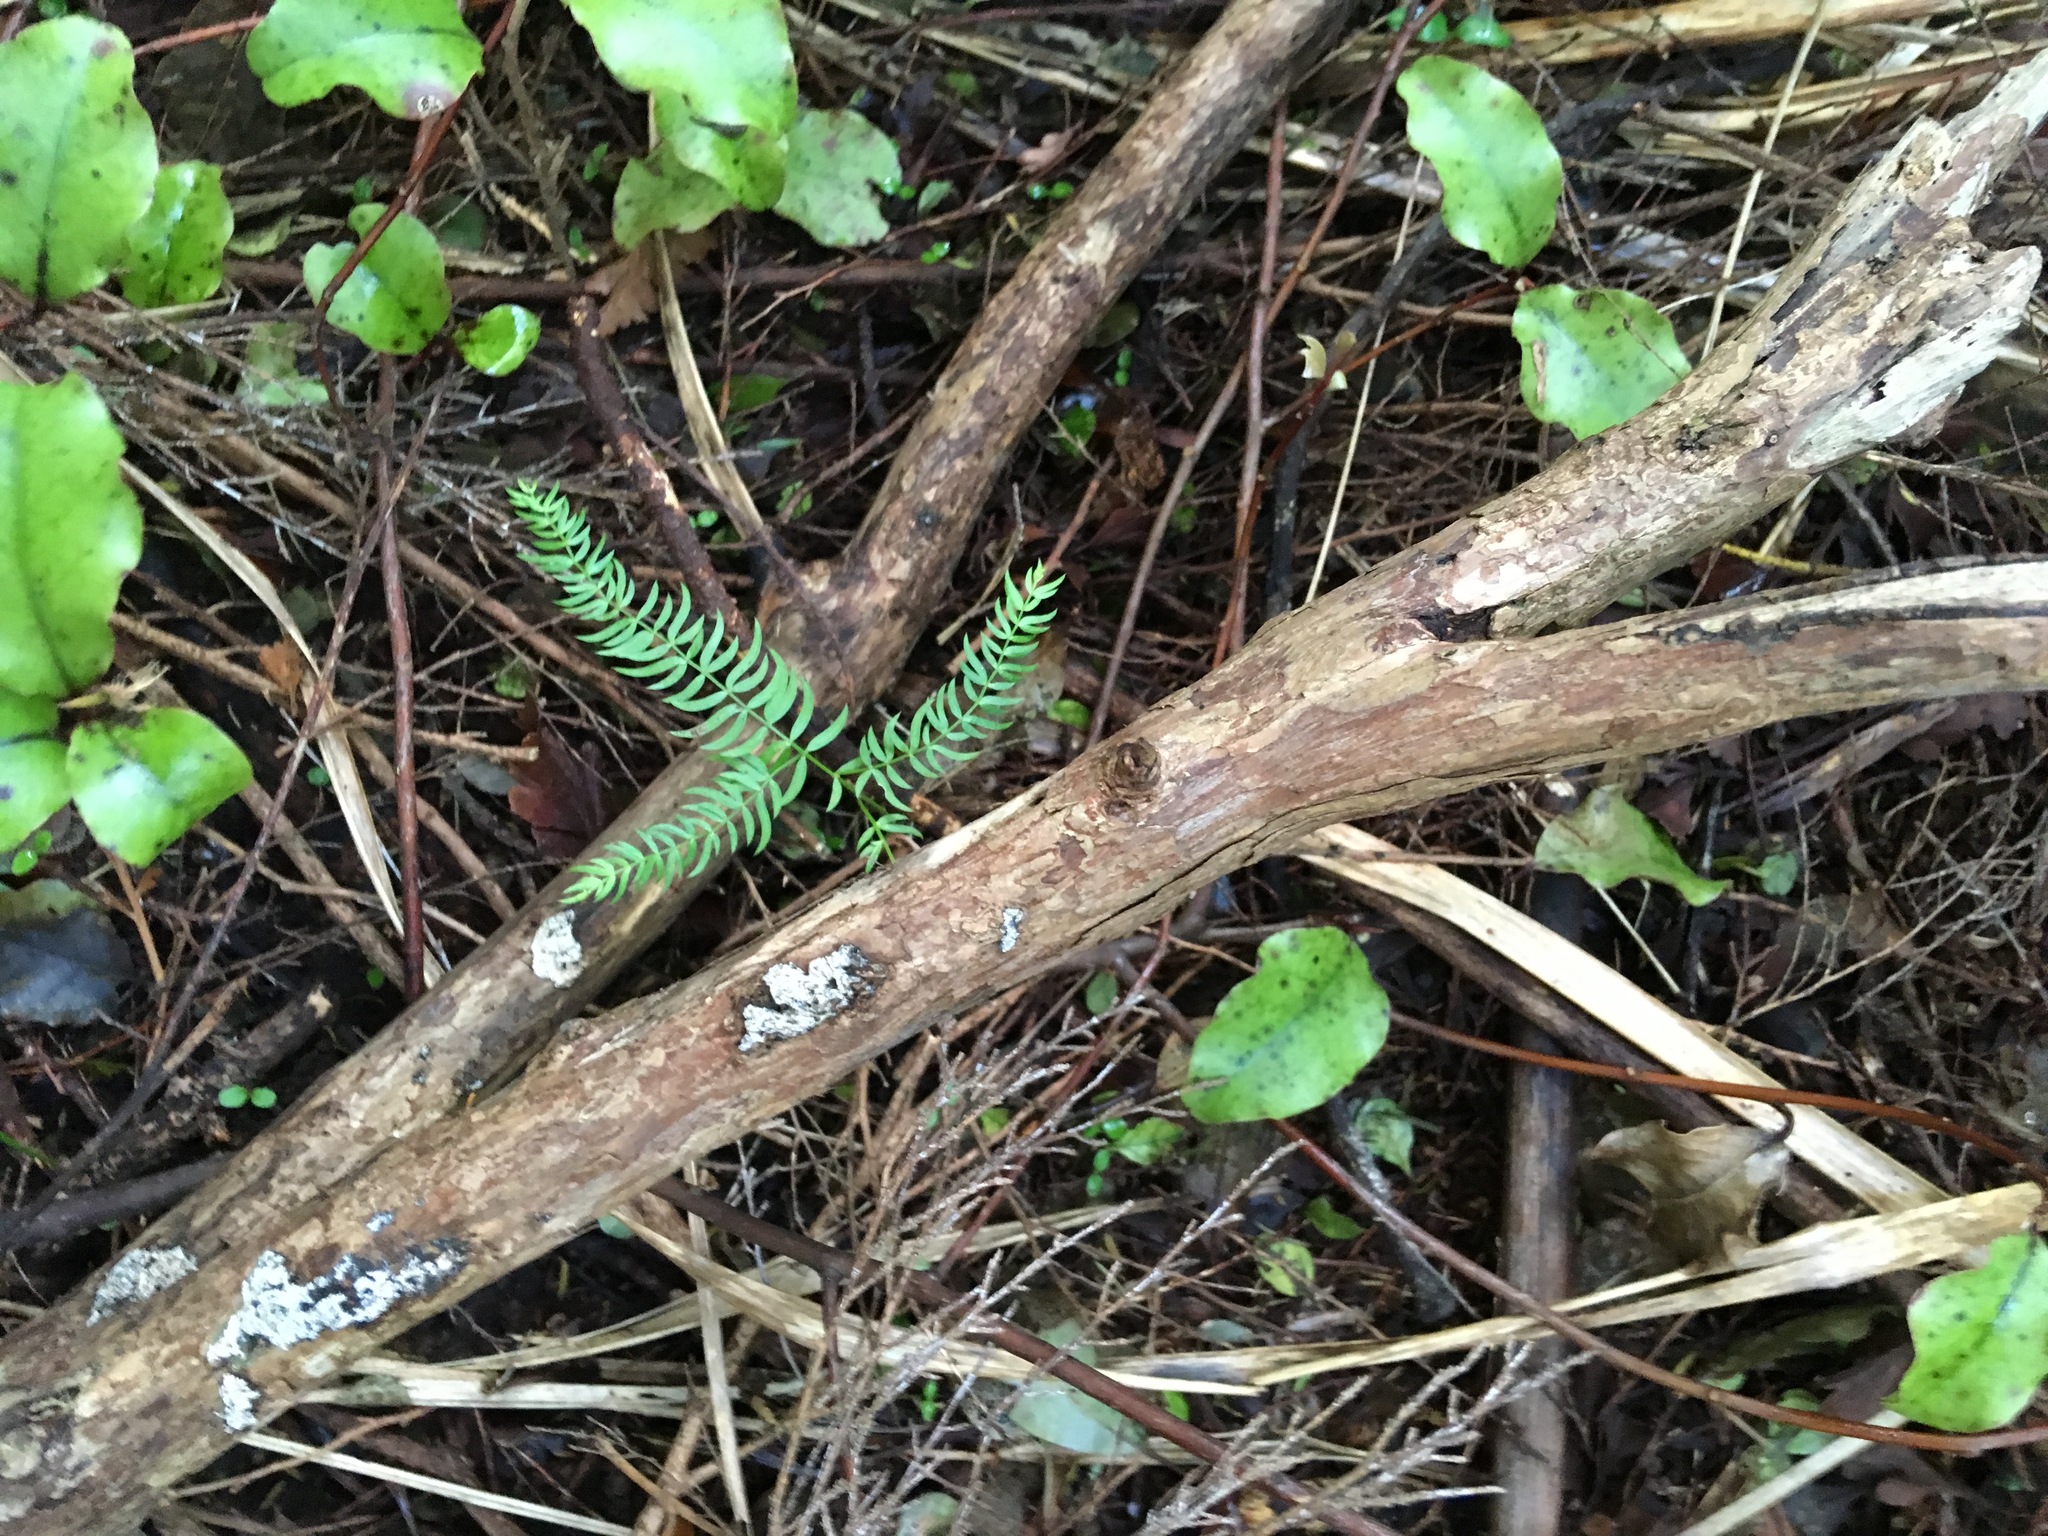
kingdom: Plantae
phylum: Tracheophyta
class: Liliopsida
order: Asparagales
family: Asparagaceae
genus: Asparagus
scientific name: Asparagus scandens
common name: Asparagus-fern
